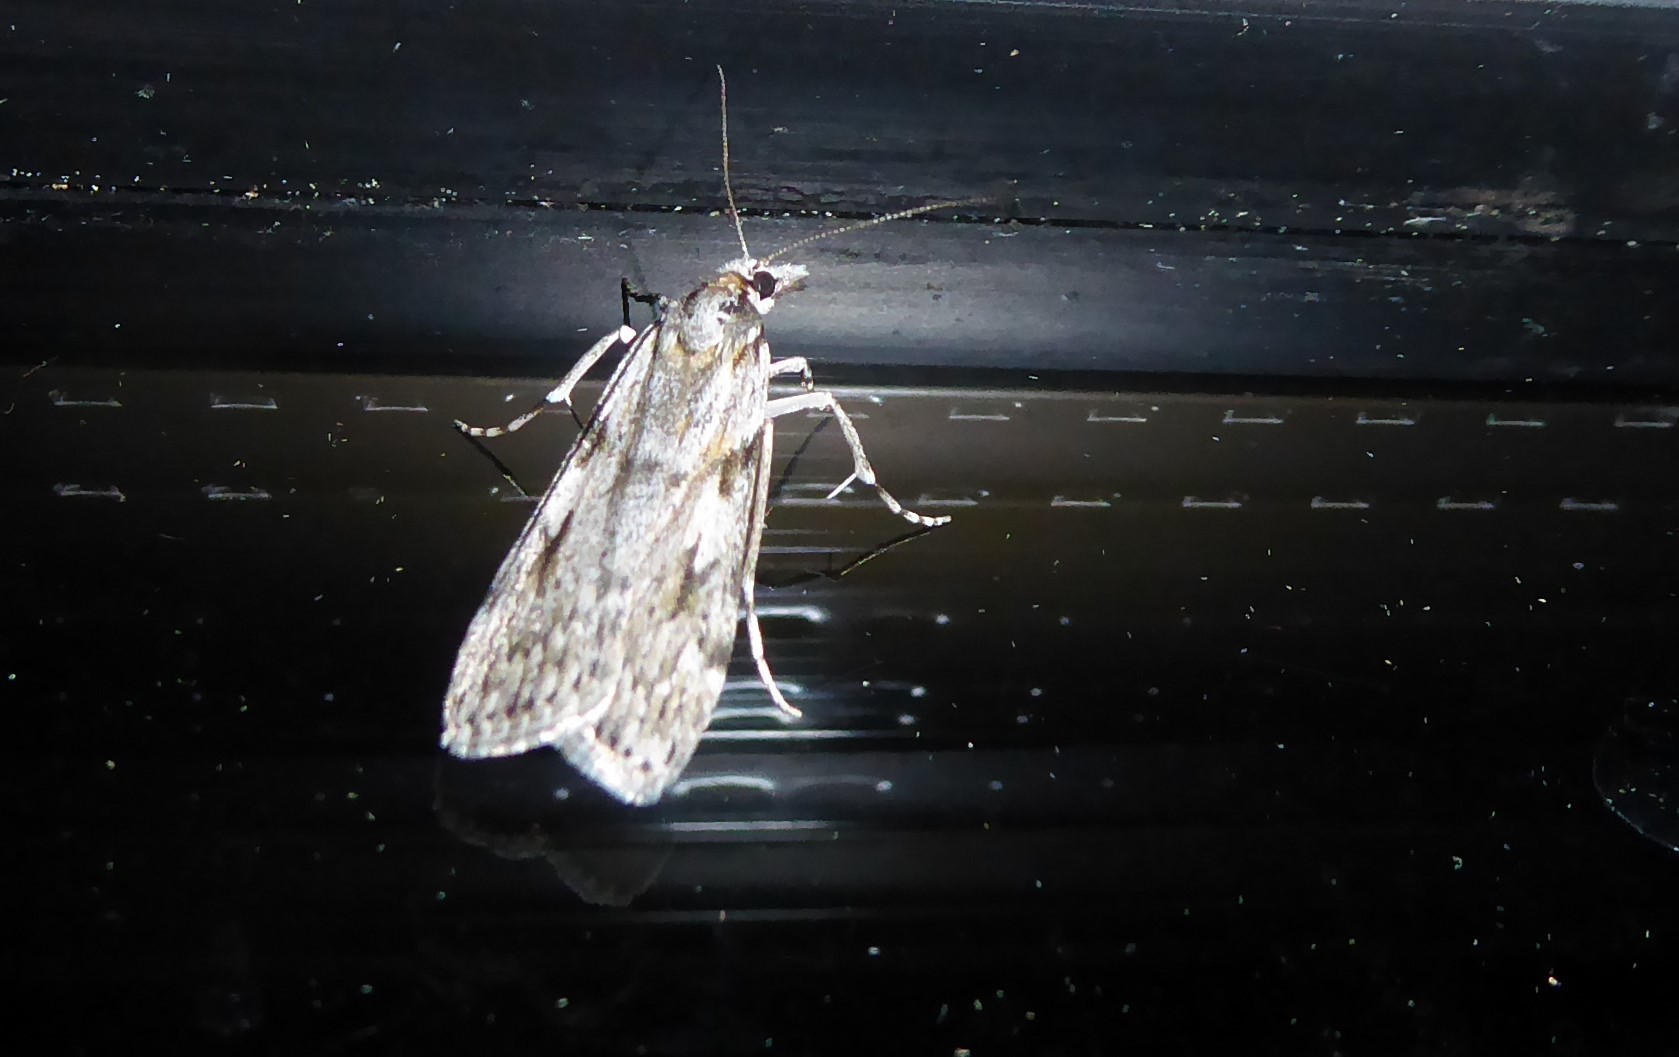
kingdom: Animalia
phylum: Arthropoda
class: Insecta
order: Lepidoptera
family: Crambidae
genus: Scoparia
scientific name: Scoparia halopis
